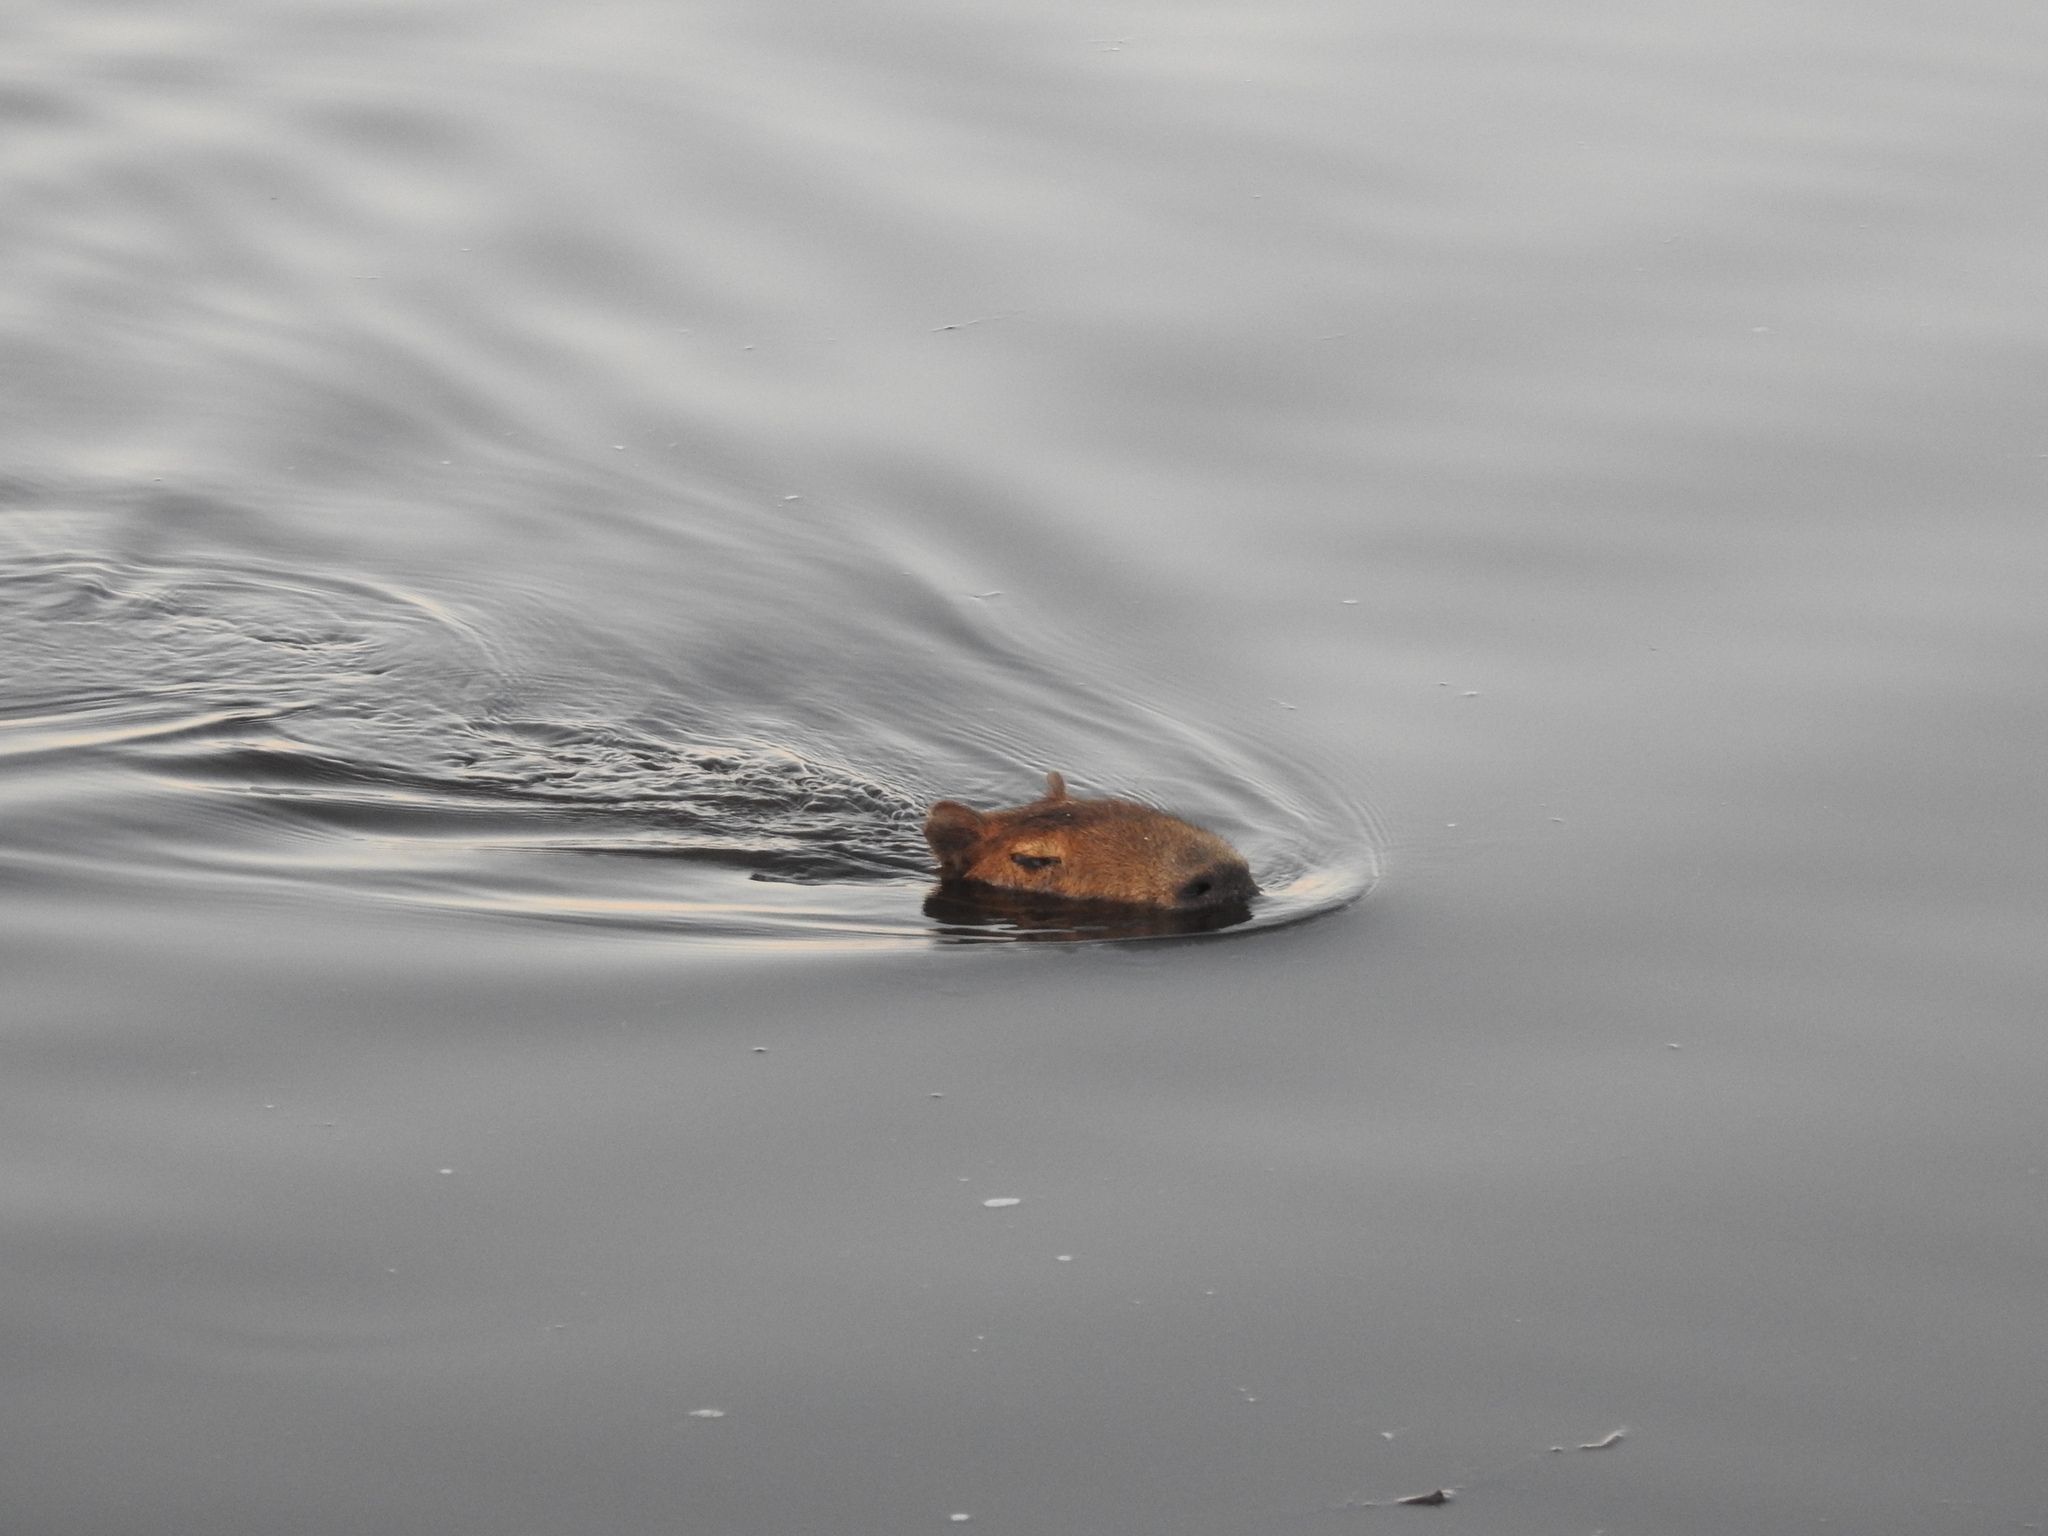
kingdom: Animalia
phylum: Chordata
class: Mammalia
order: Rodentia
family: Caviidae
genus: Hydrochoerus
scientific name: Hydrochoerus hydrochaeris
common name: Capybara
